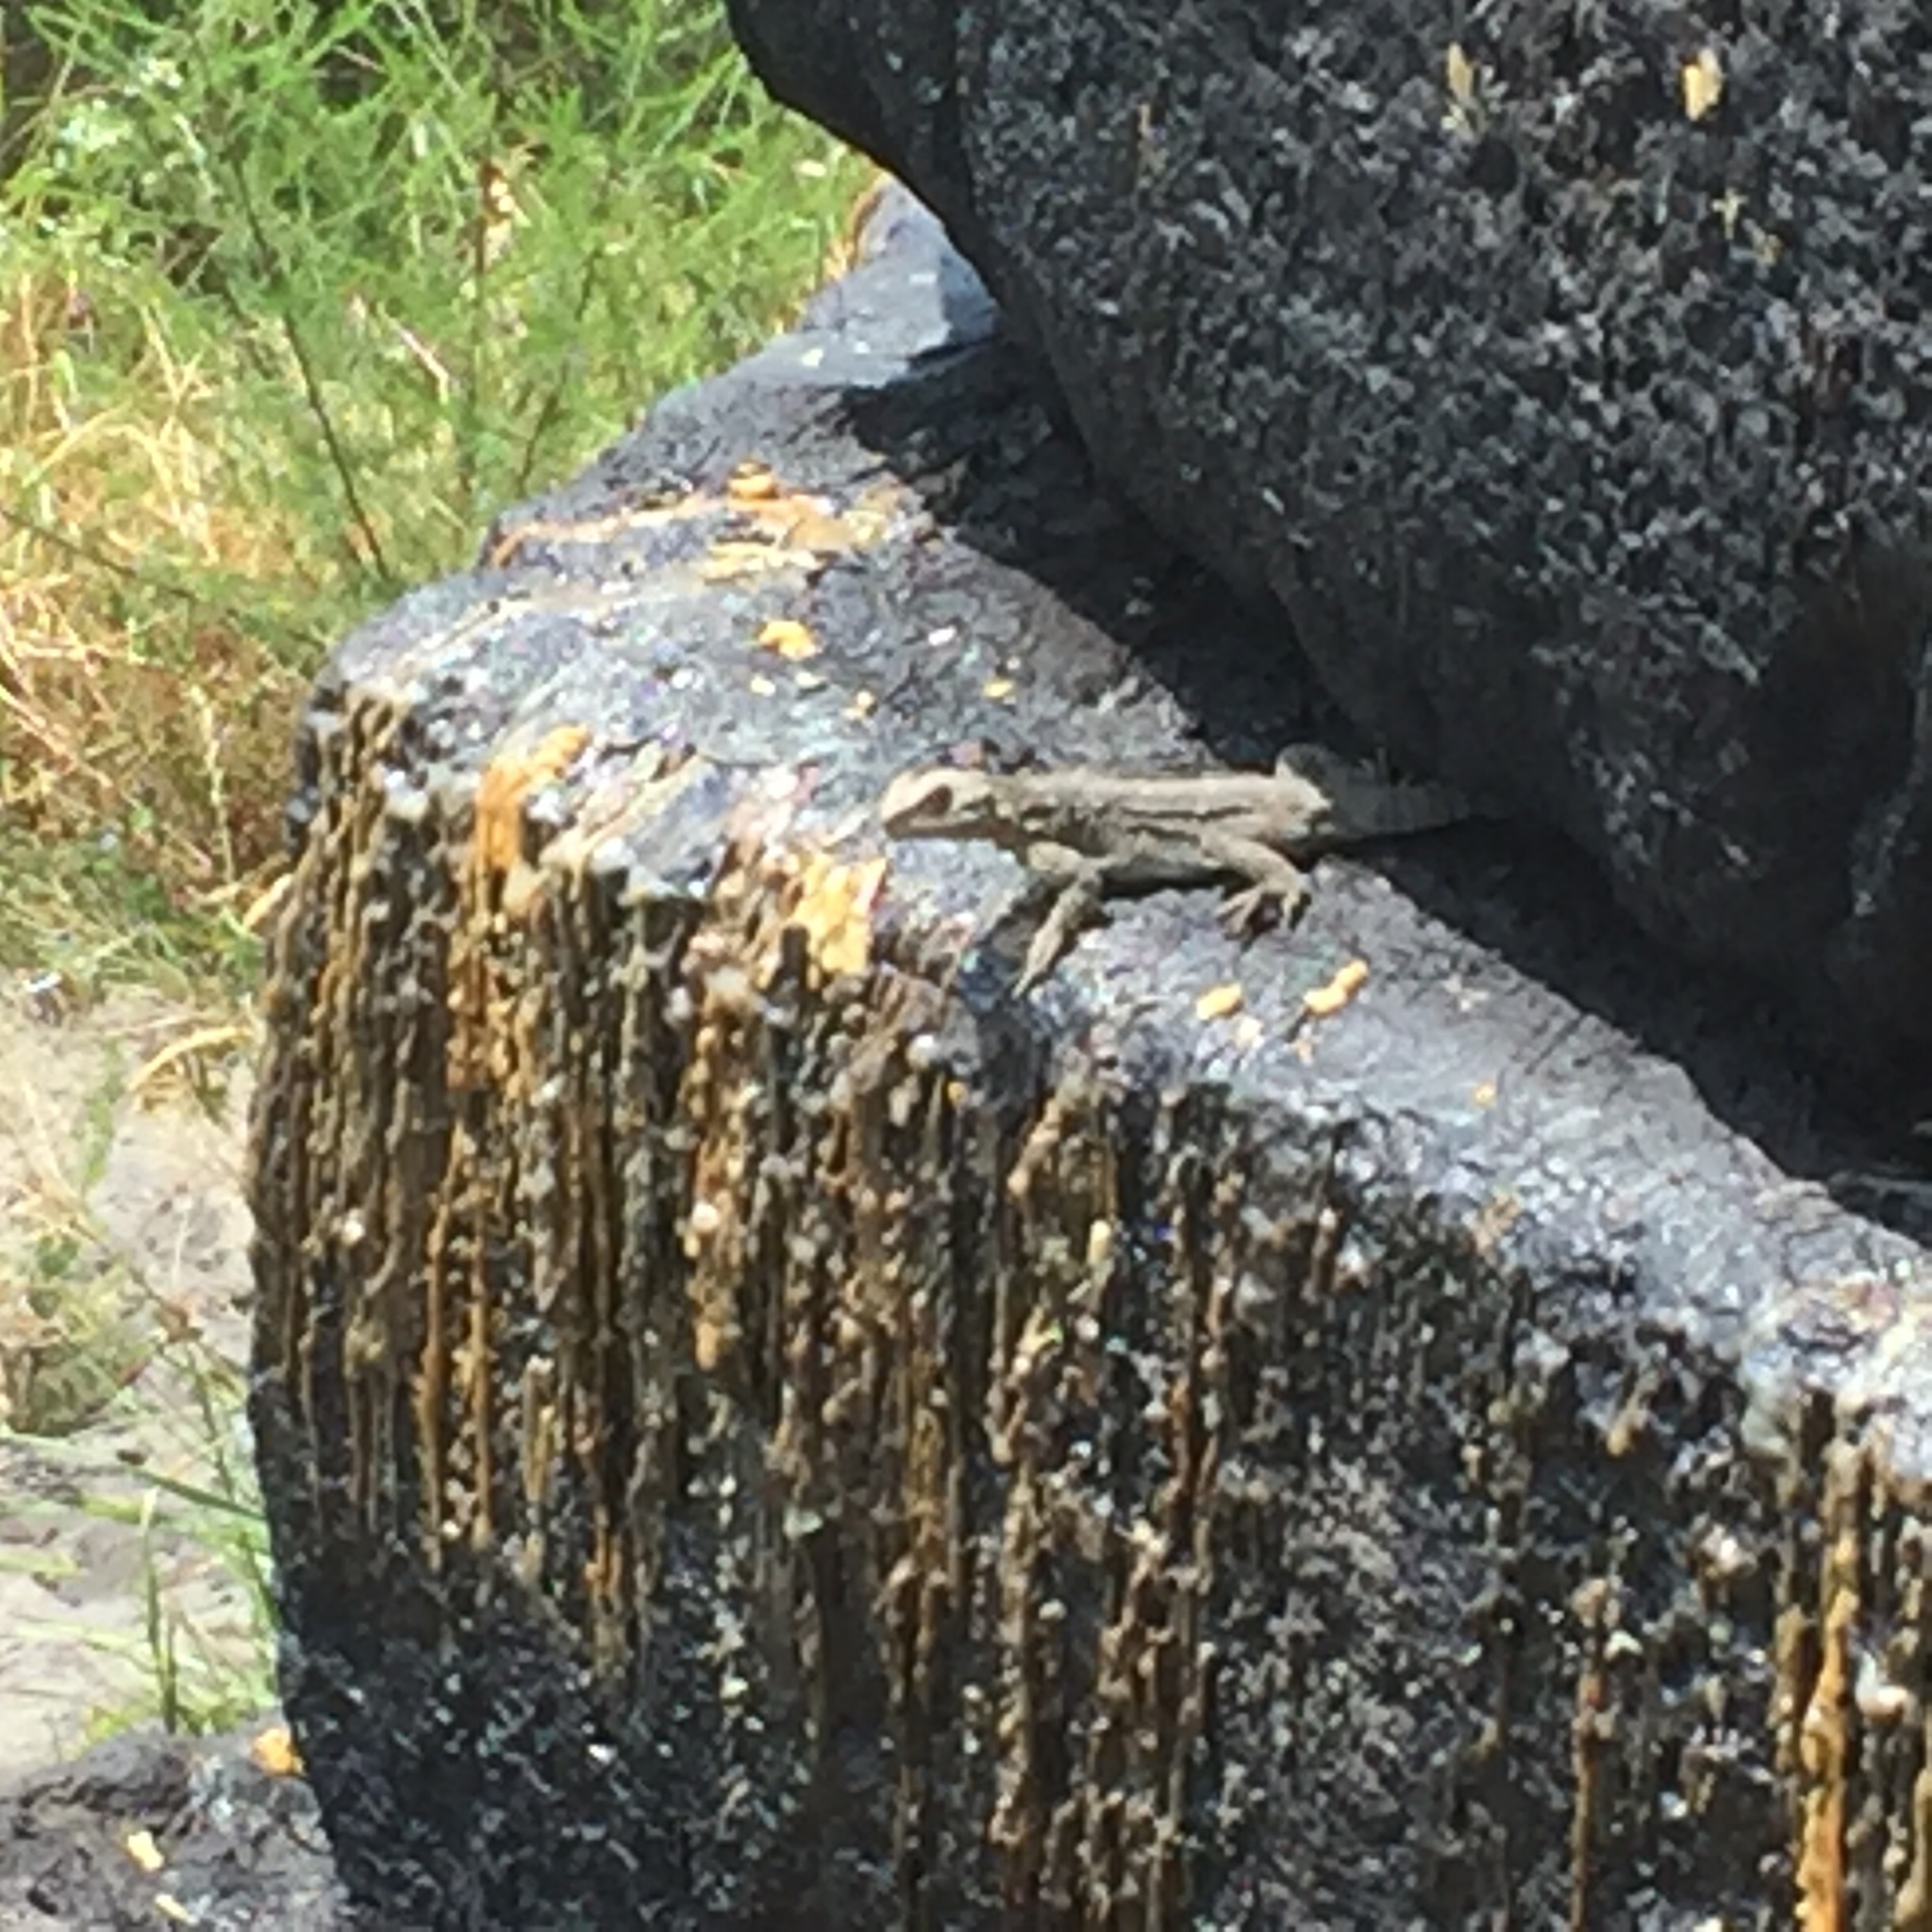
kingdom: Animalia
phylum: Chordata
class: Squamata
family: Agamidae
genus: Paralaudakia
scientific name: Paralaudakia caucasia
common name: Caucasian agama
